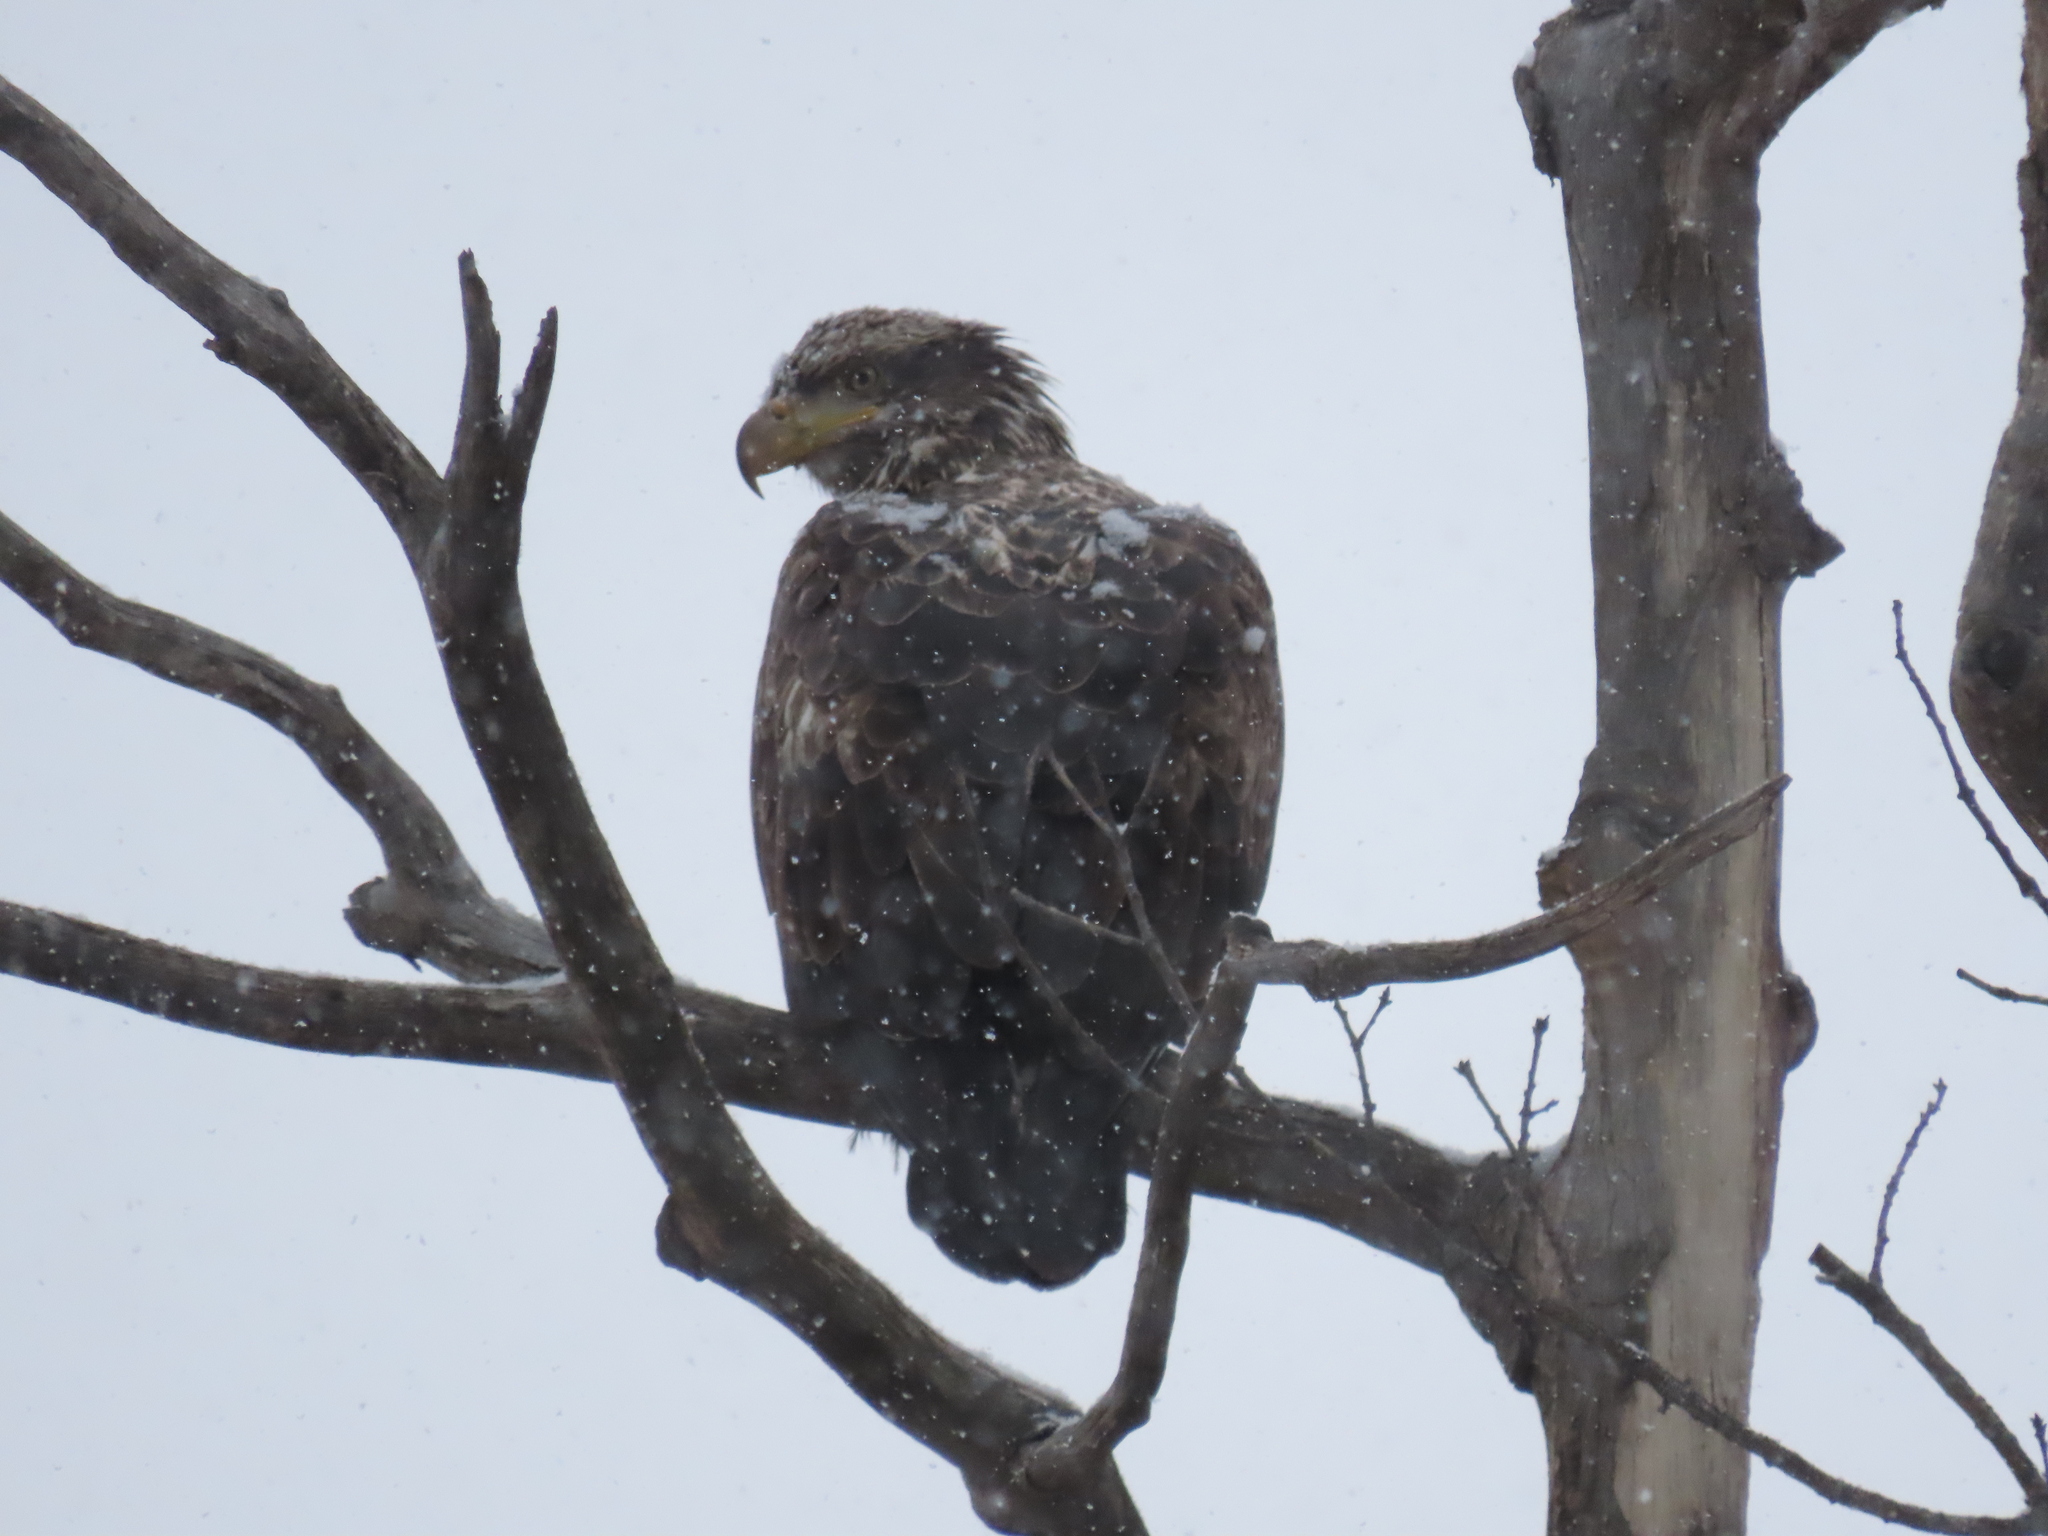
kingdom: Animalia
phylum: Chordata
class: Aves
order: Accipitriformes
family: Accipitridae
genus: Haliaeetus
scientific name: Haliaeetus leucocephalus
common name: Bald eagle
